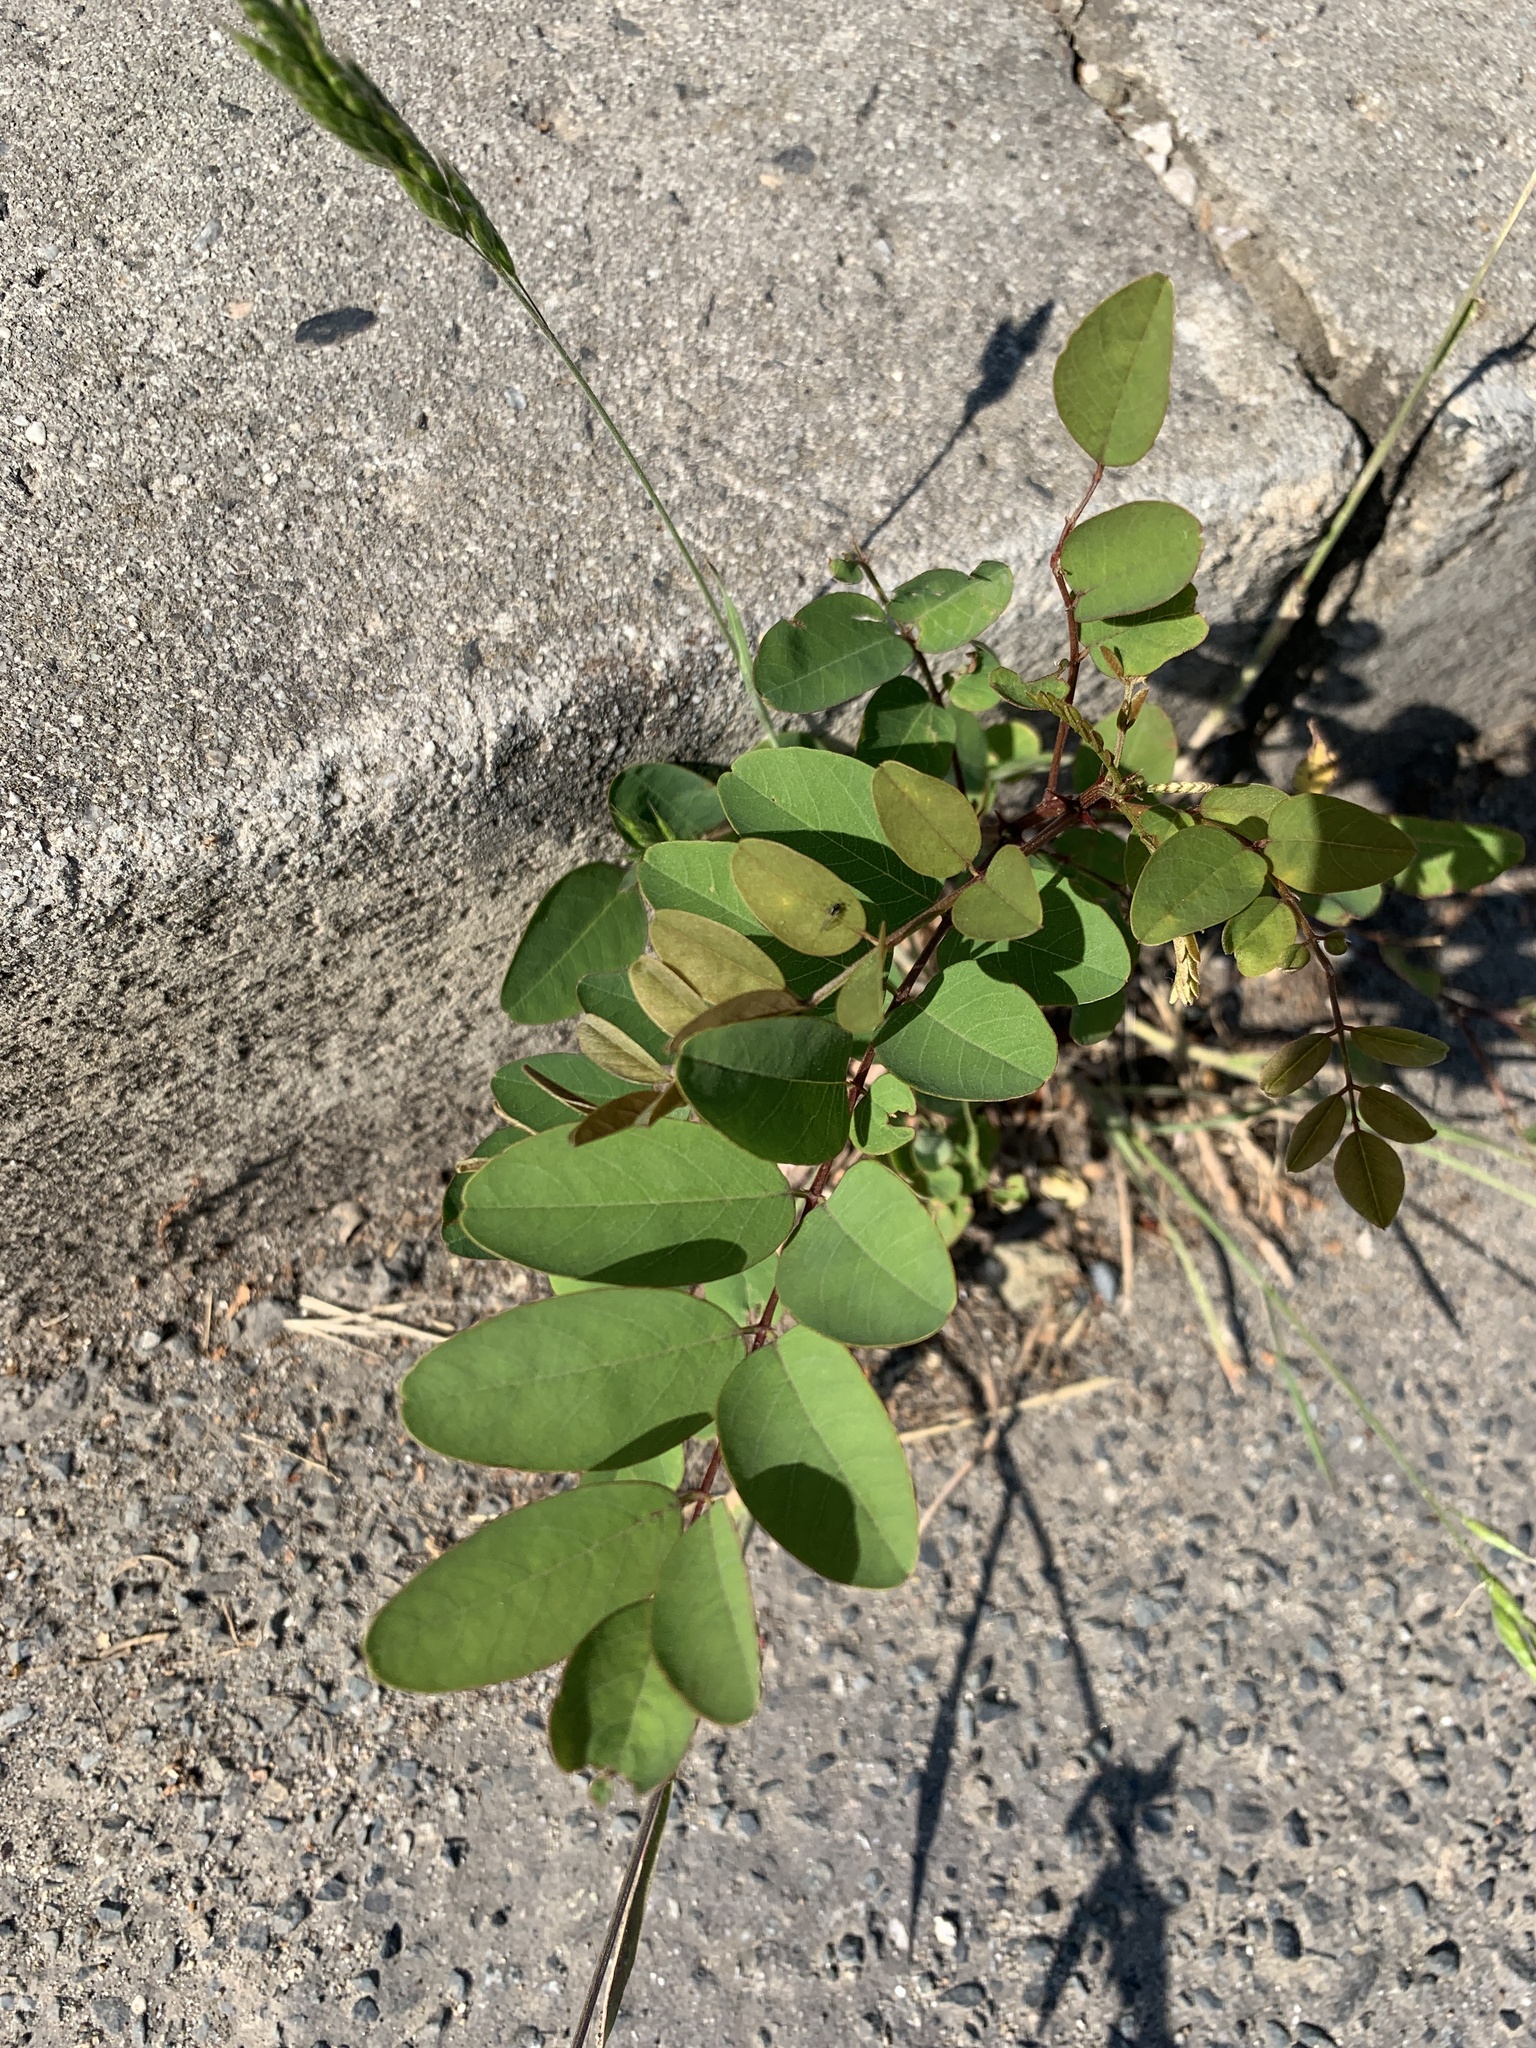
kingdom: Plantae
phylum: Tracheophyta
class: Magnoliopsida
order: Fabales
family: Fabaceae
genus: Robinia
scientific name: Robinia pseudoacacia
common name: Black locust
